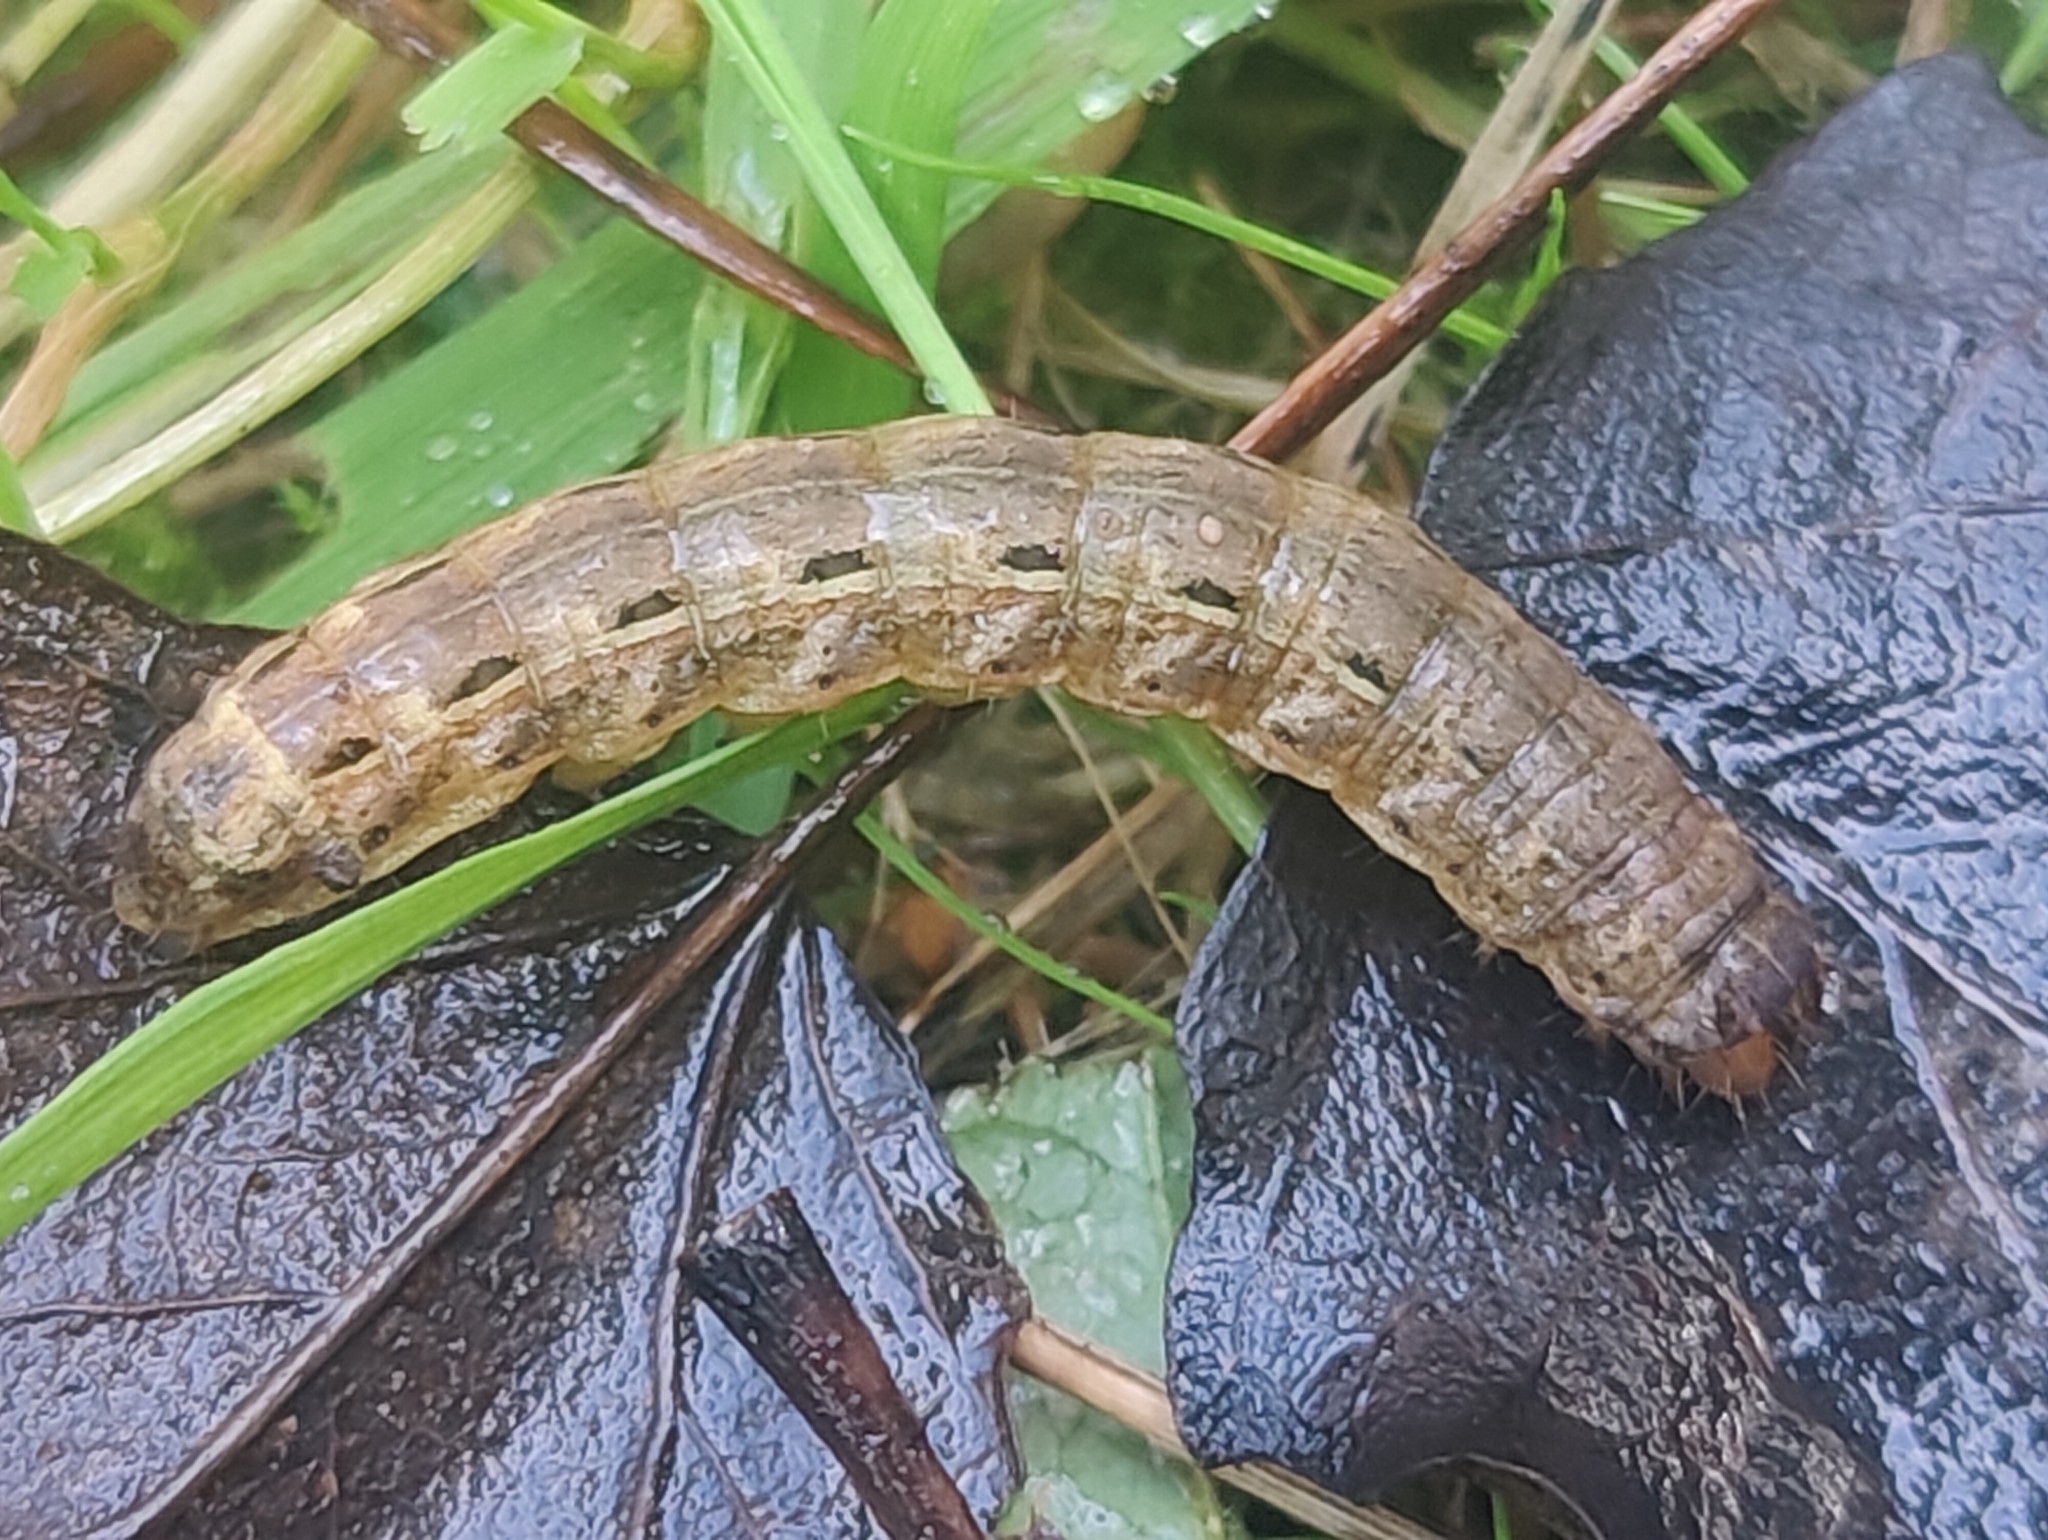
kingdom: Animalia
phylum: Arthropoda
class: Insecta
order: Lepidoptera
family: Noctuidae
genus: Noctua
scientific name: Noctua pronuba
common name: Large yellow underwing
